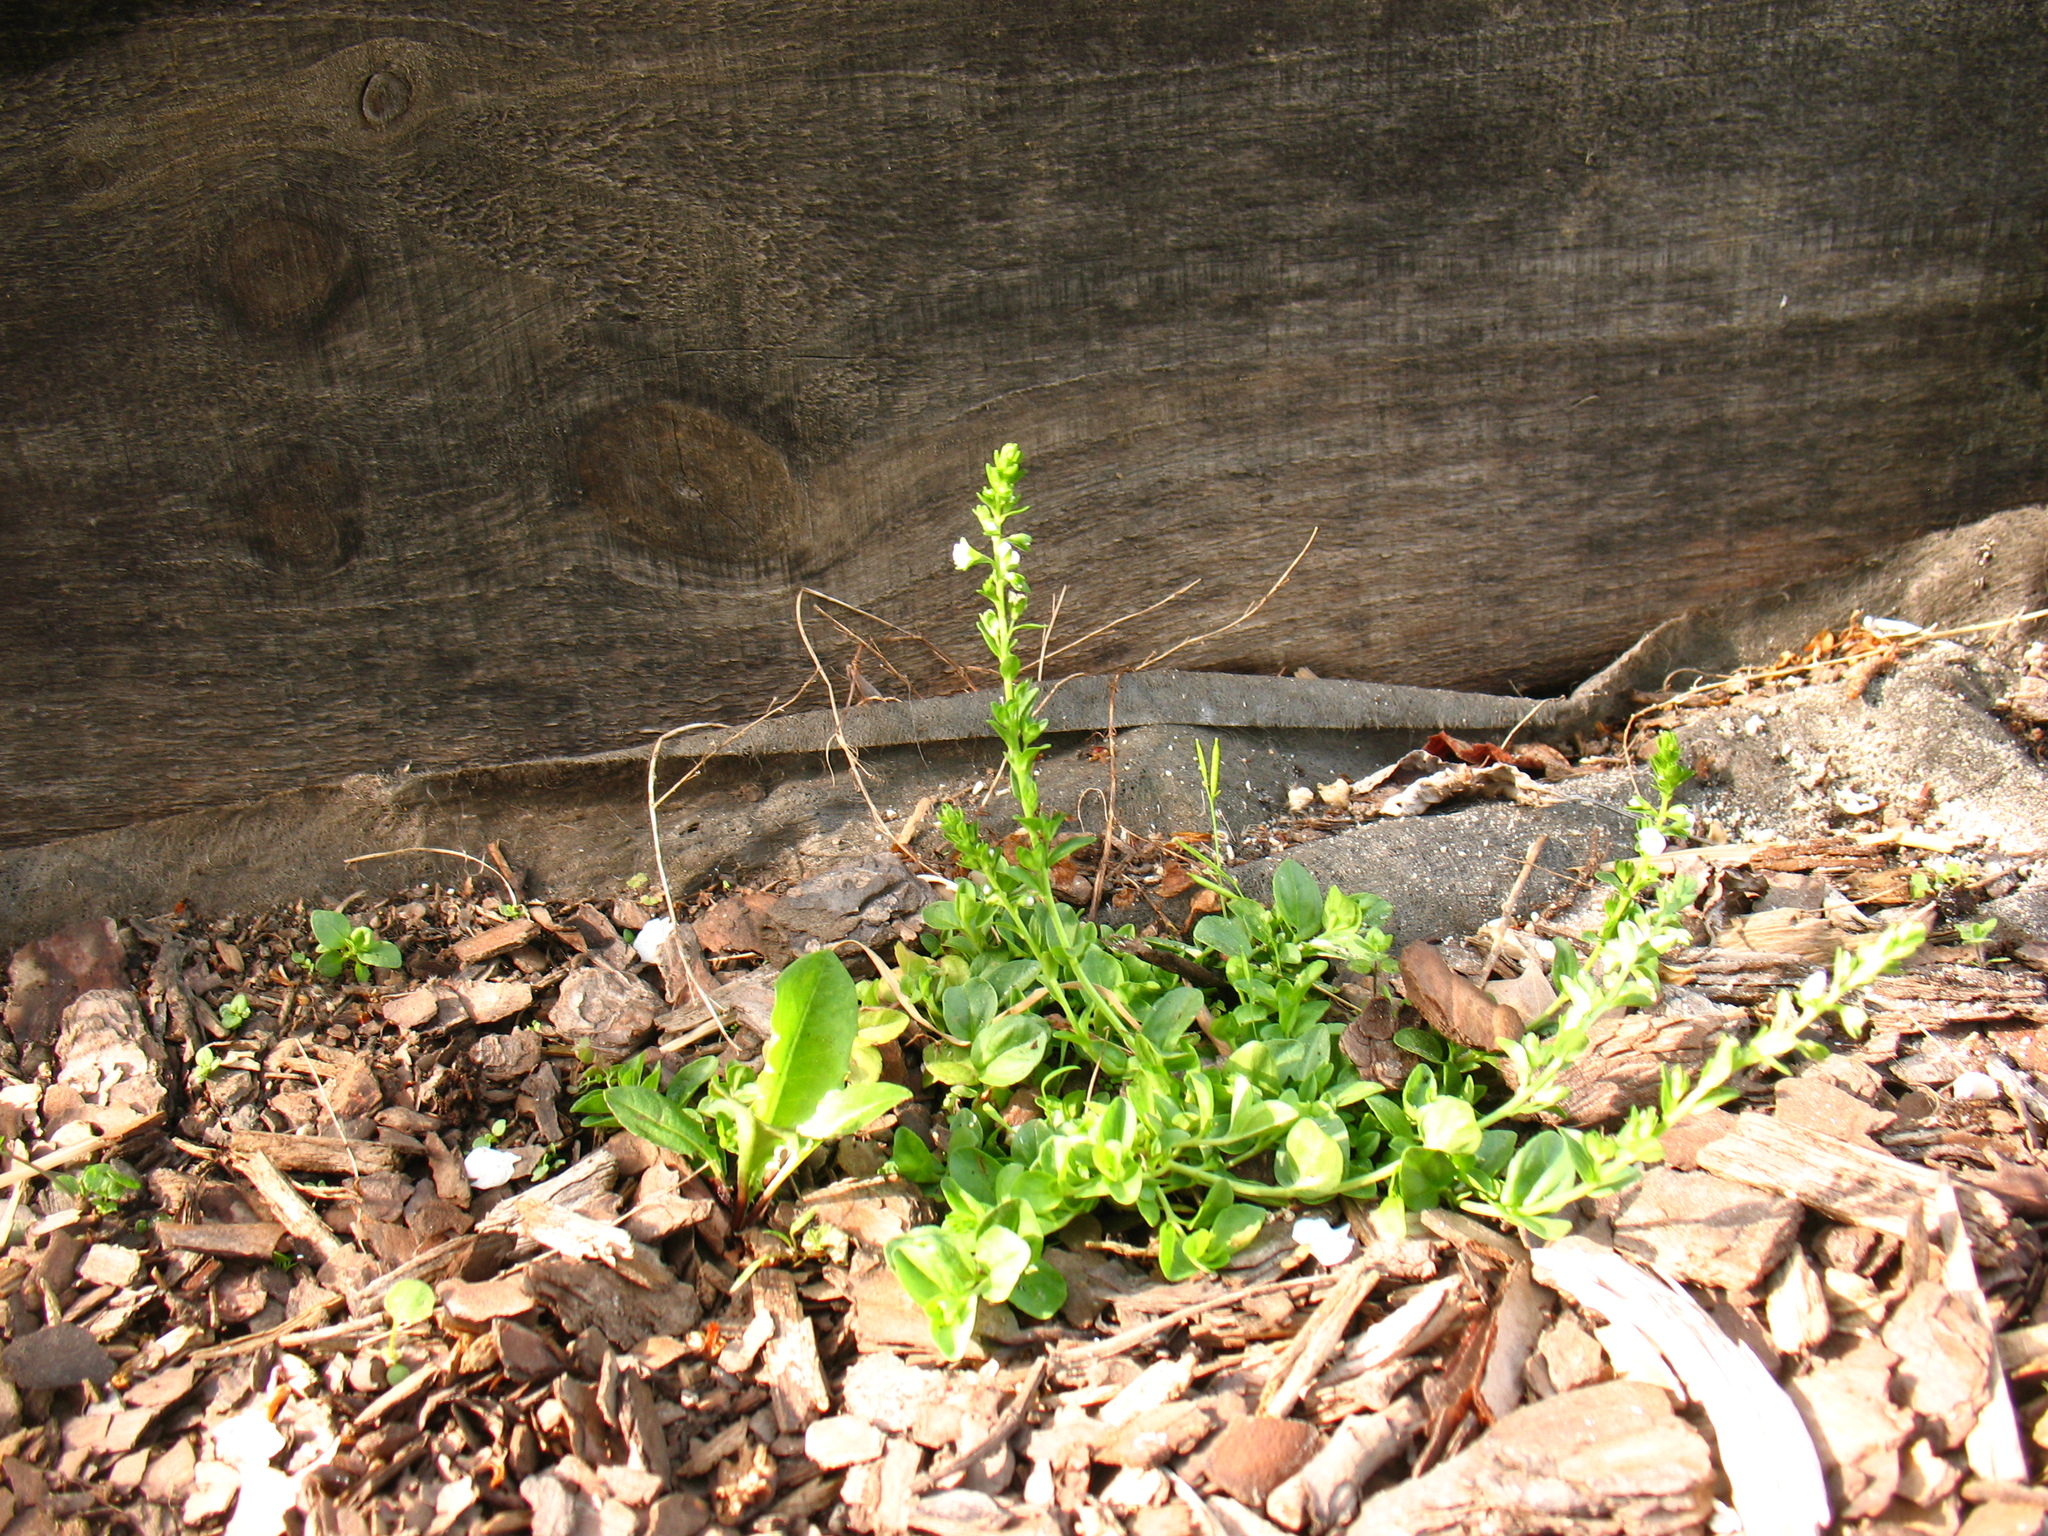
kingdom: Plantae
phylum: Tracheophyta
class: Magnoliopsida
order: Lamiales
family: Plantaginaceae
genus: Veronica
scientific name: Veronica serpyllifolia
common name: Thyme-leaved speedwell
